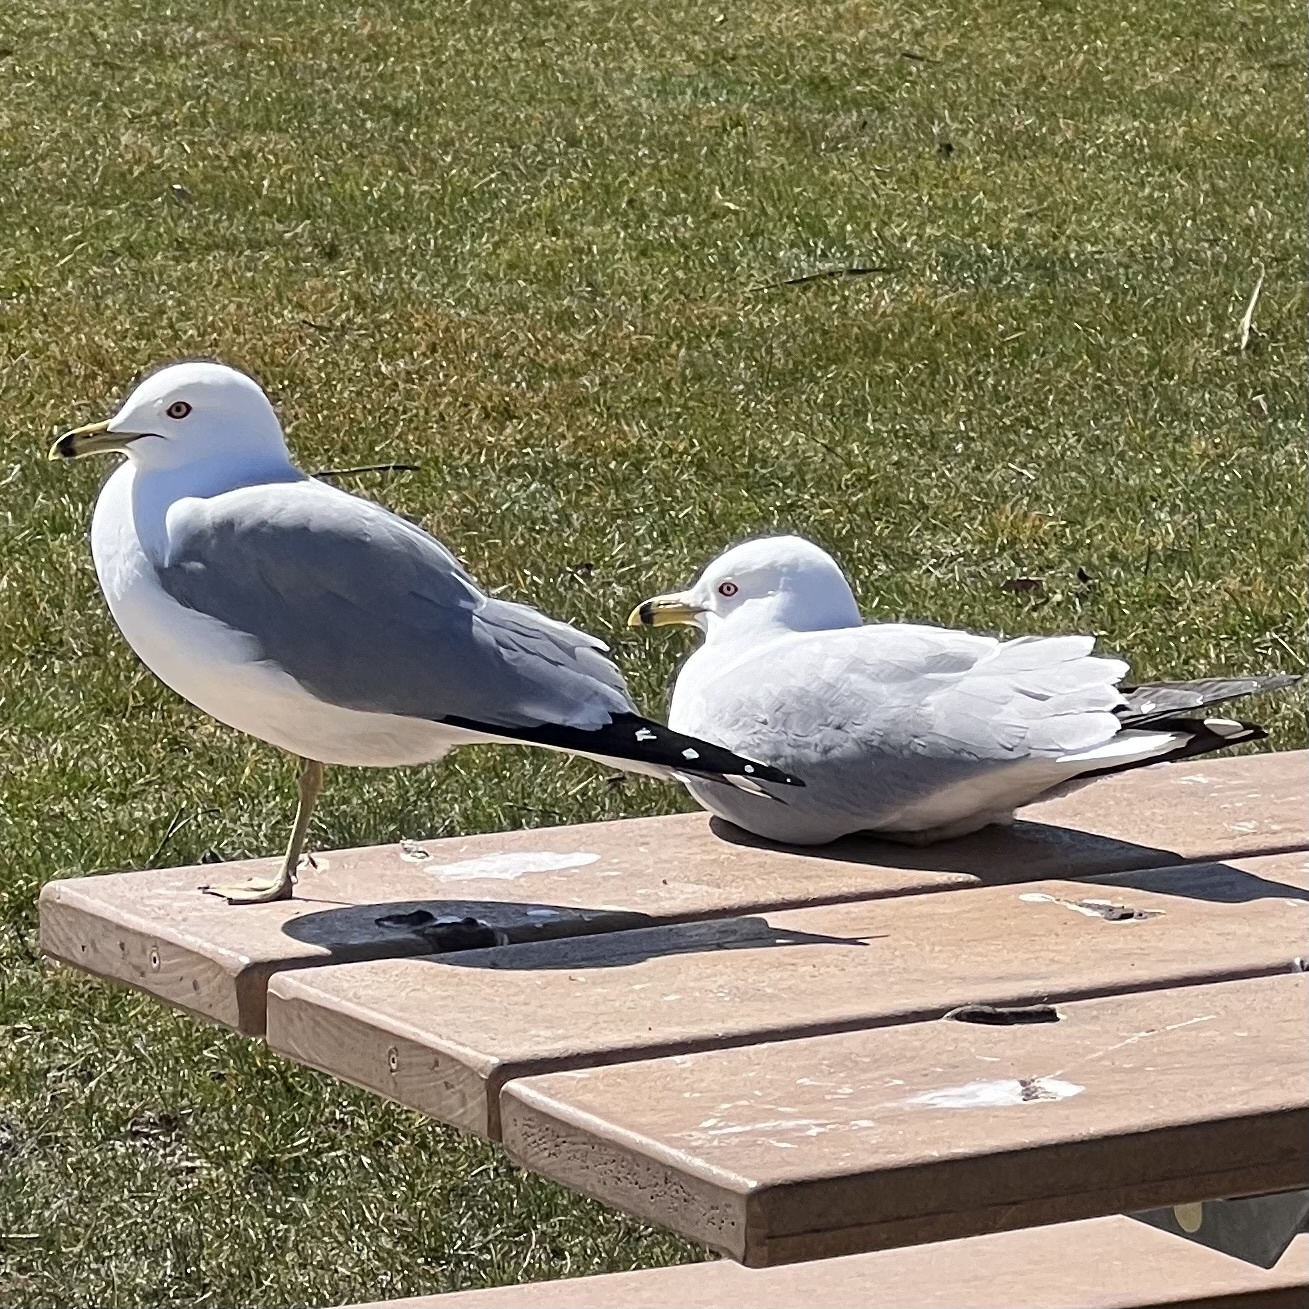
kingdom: Animalia
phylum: Chordata
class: Aves
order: Charadriiformes
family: Laridae
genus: Larus
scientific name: Larus delawarensis
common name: Ring-billed gull
